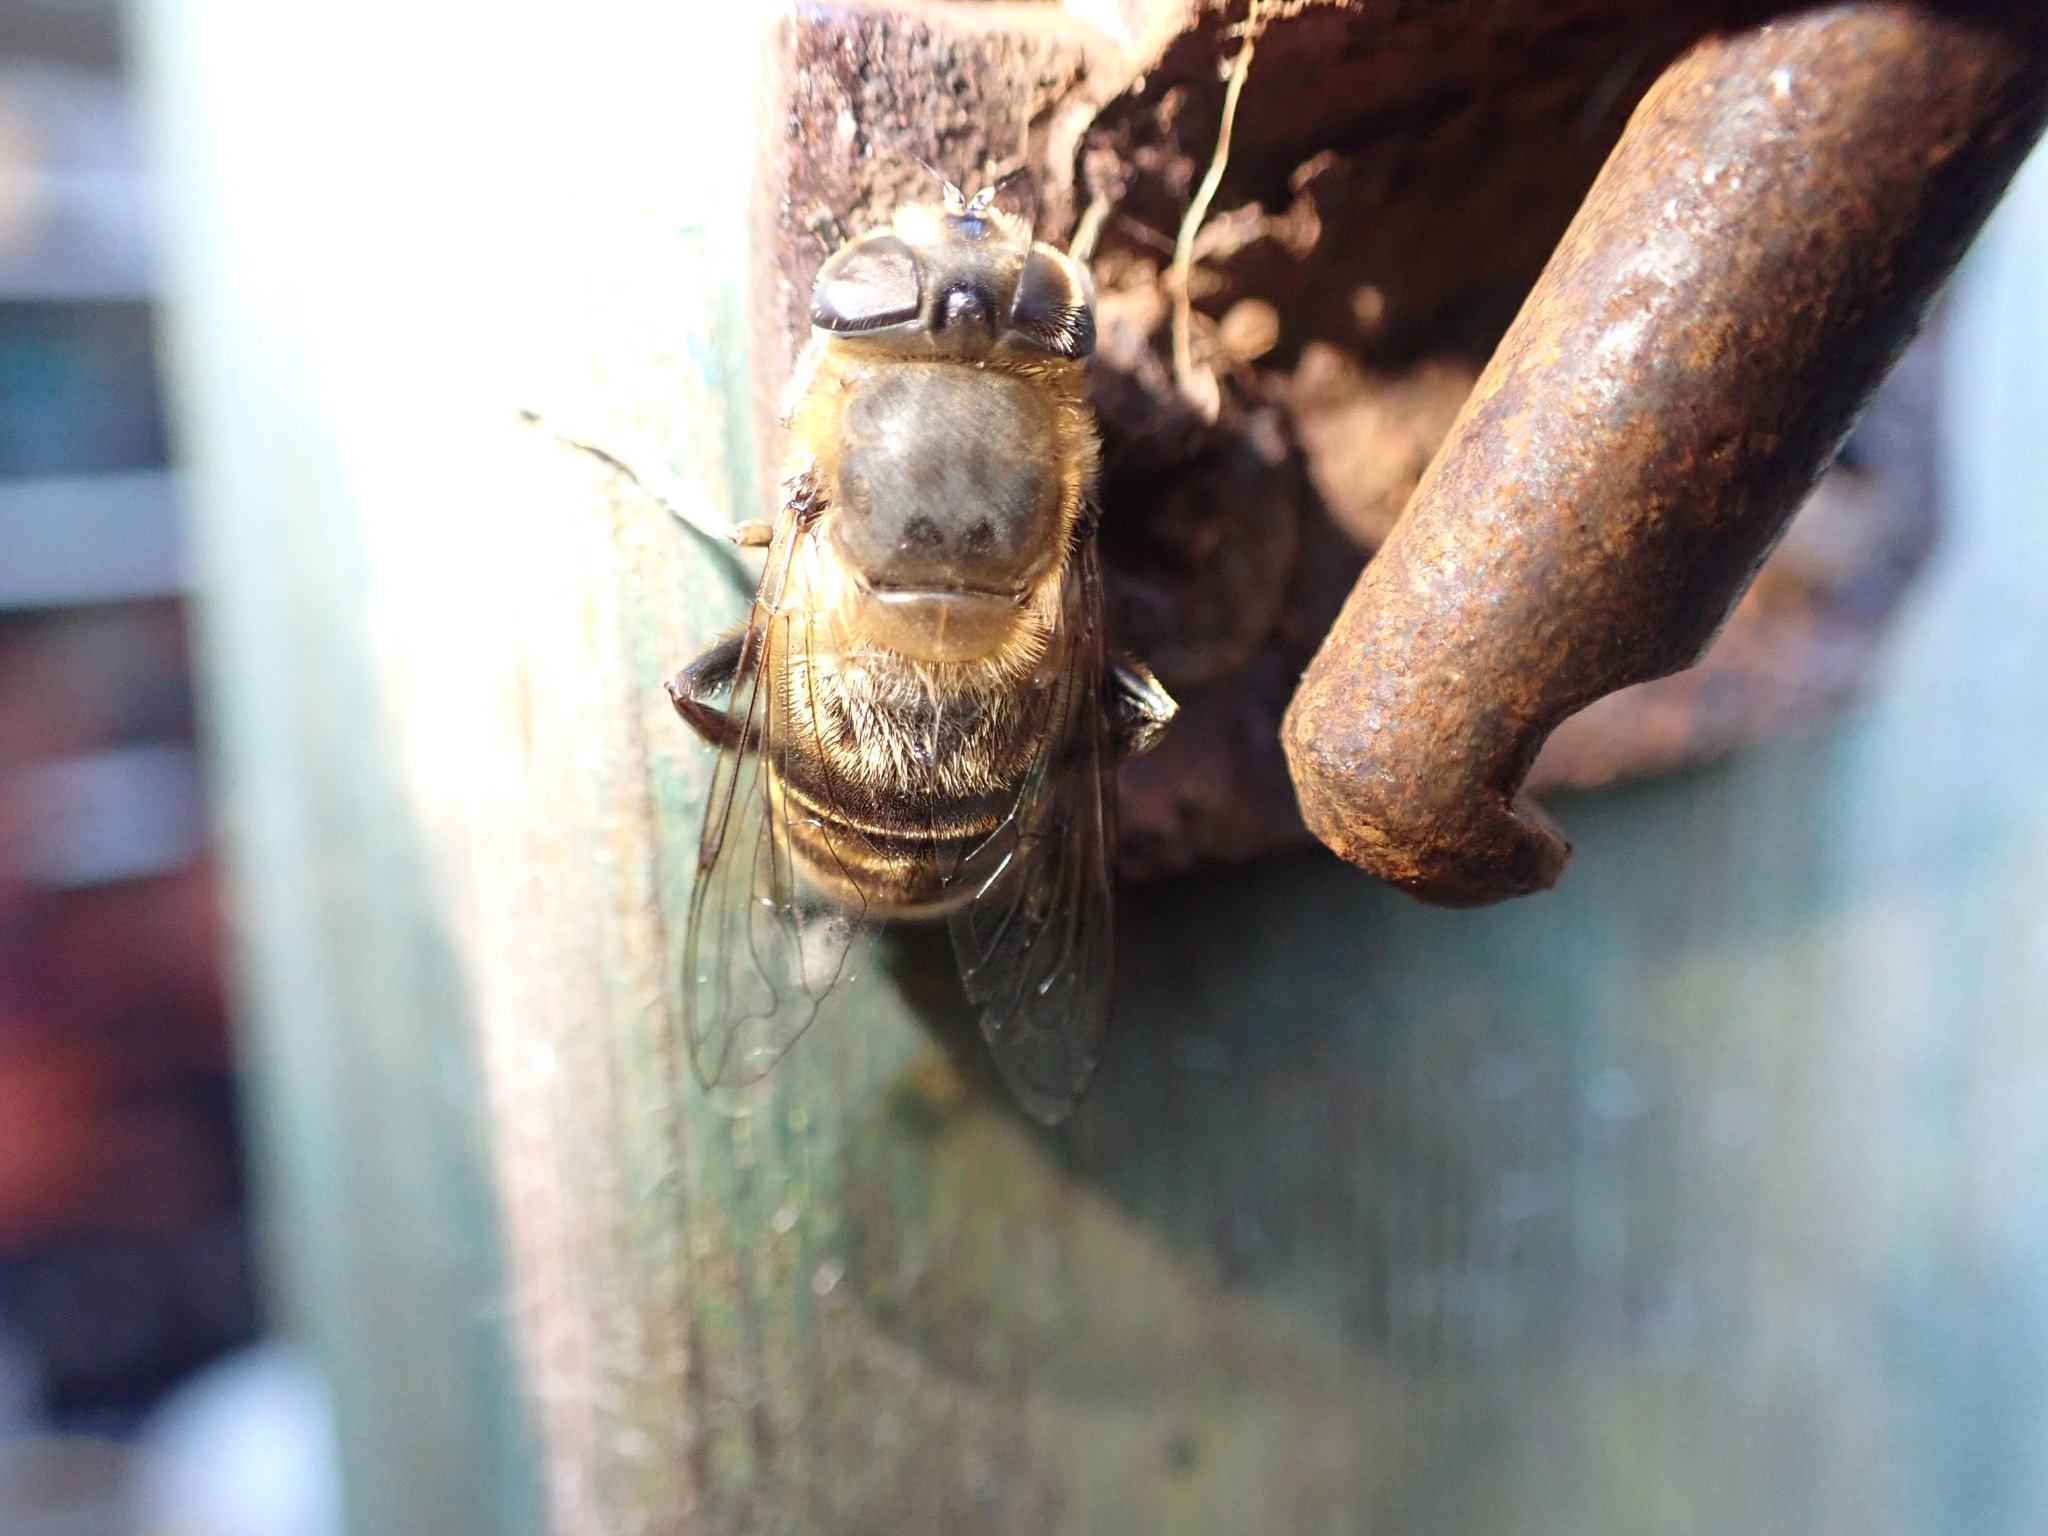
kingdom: Animalia
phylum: Arthropoda
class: Insecta
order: Diptera
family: Syrphidae
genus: Eristalis
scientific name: Eristalis tenax
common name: Drone fly
